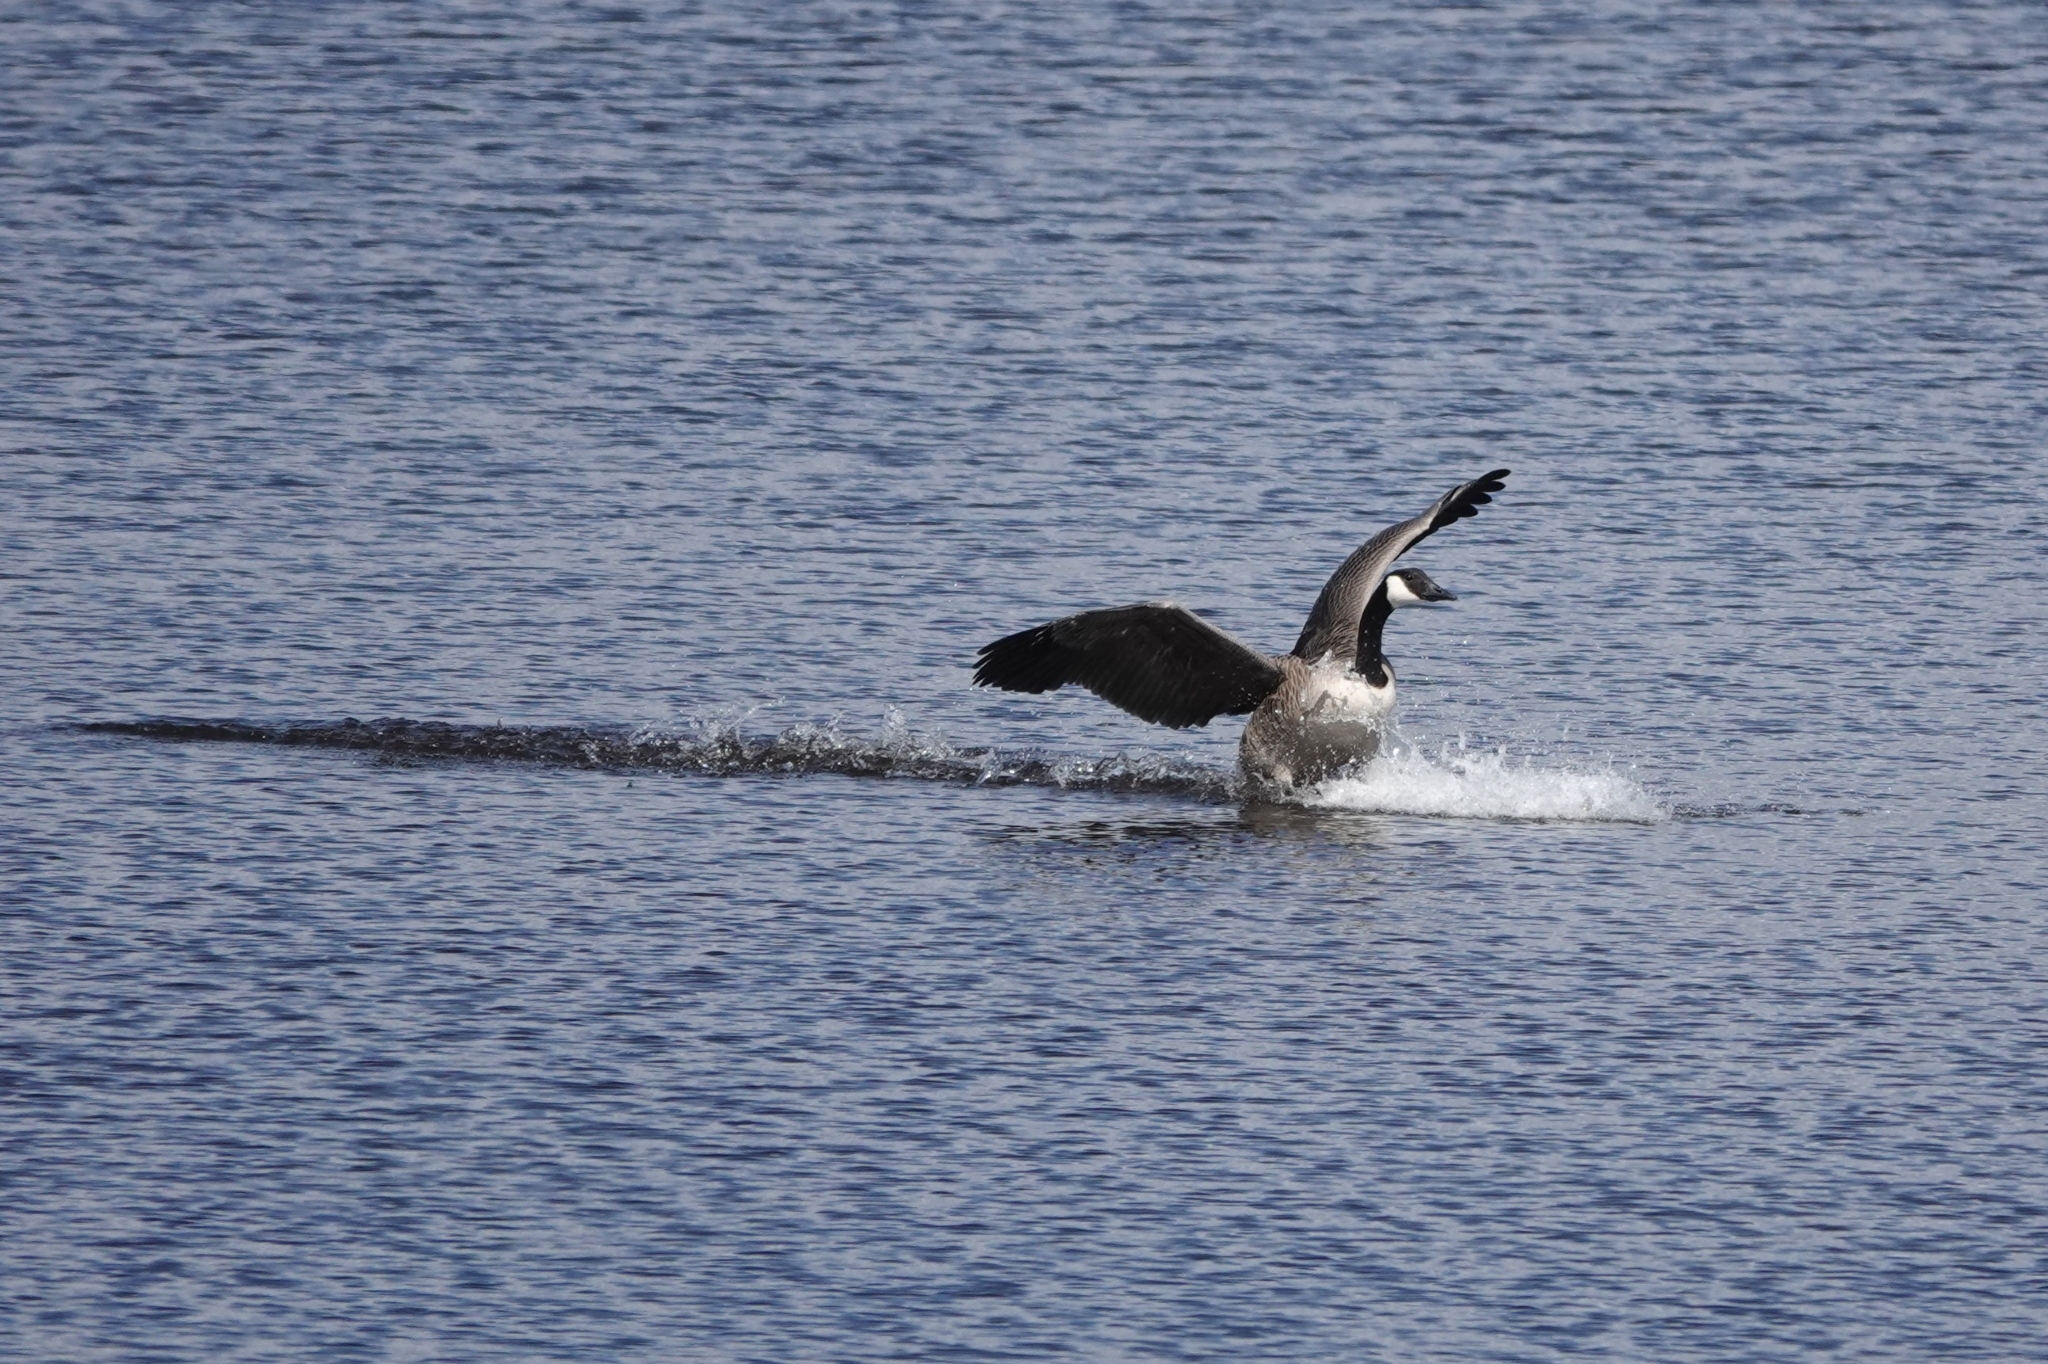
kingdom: Animalia
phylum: Chordata
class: Aves
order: Anseriformes
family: Anatidae
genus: Branta
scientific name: Branta canadensis
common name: Canada goose
